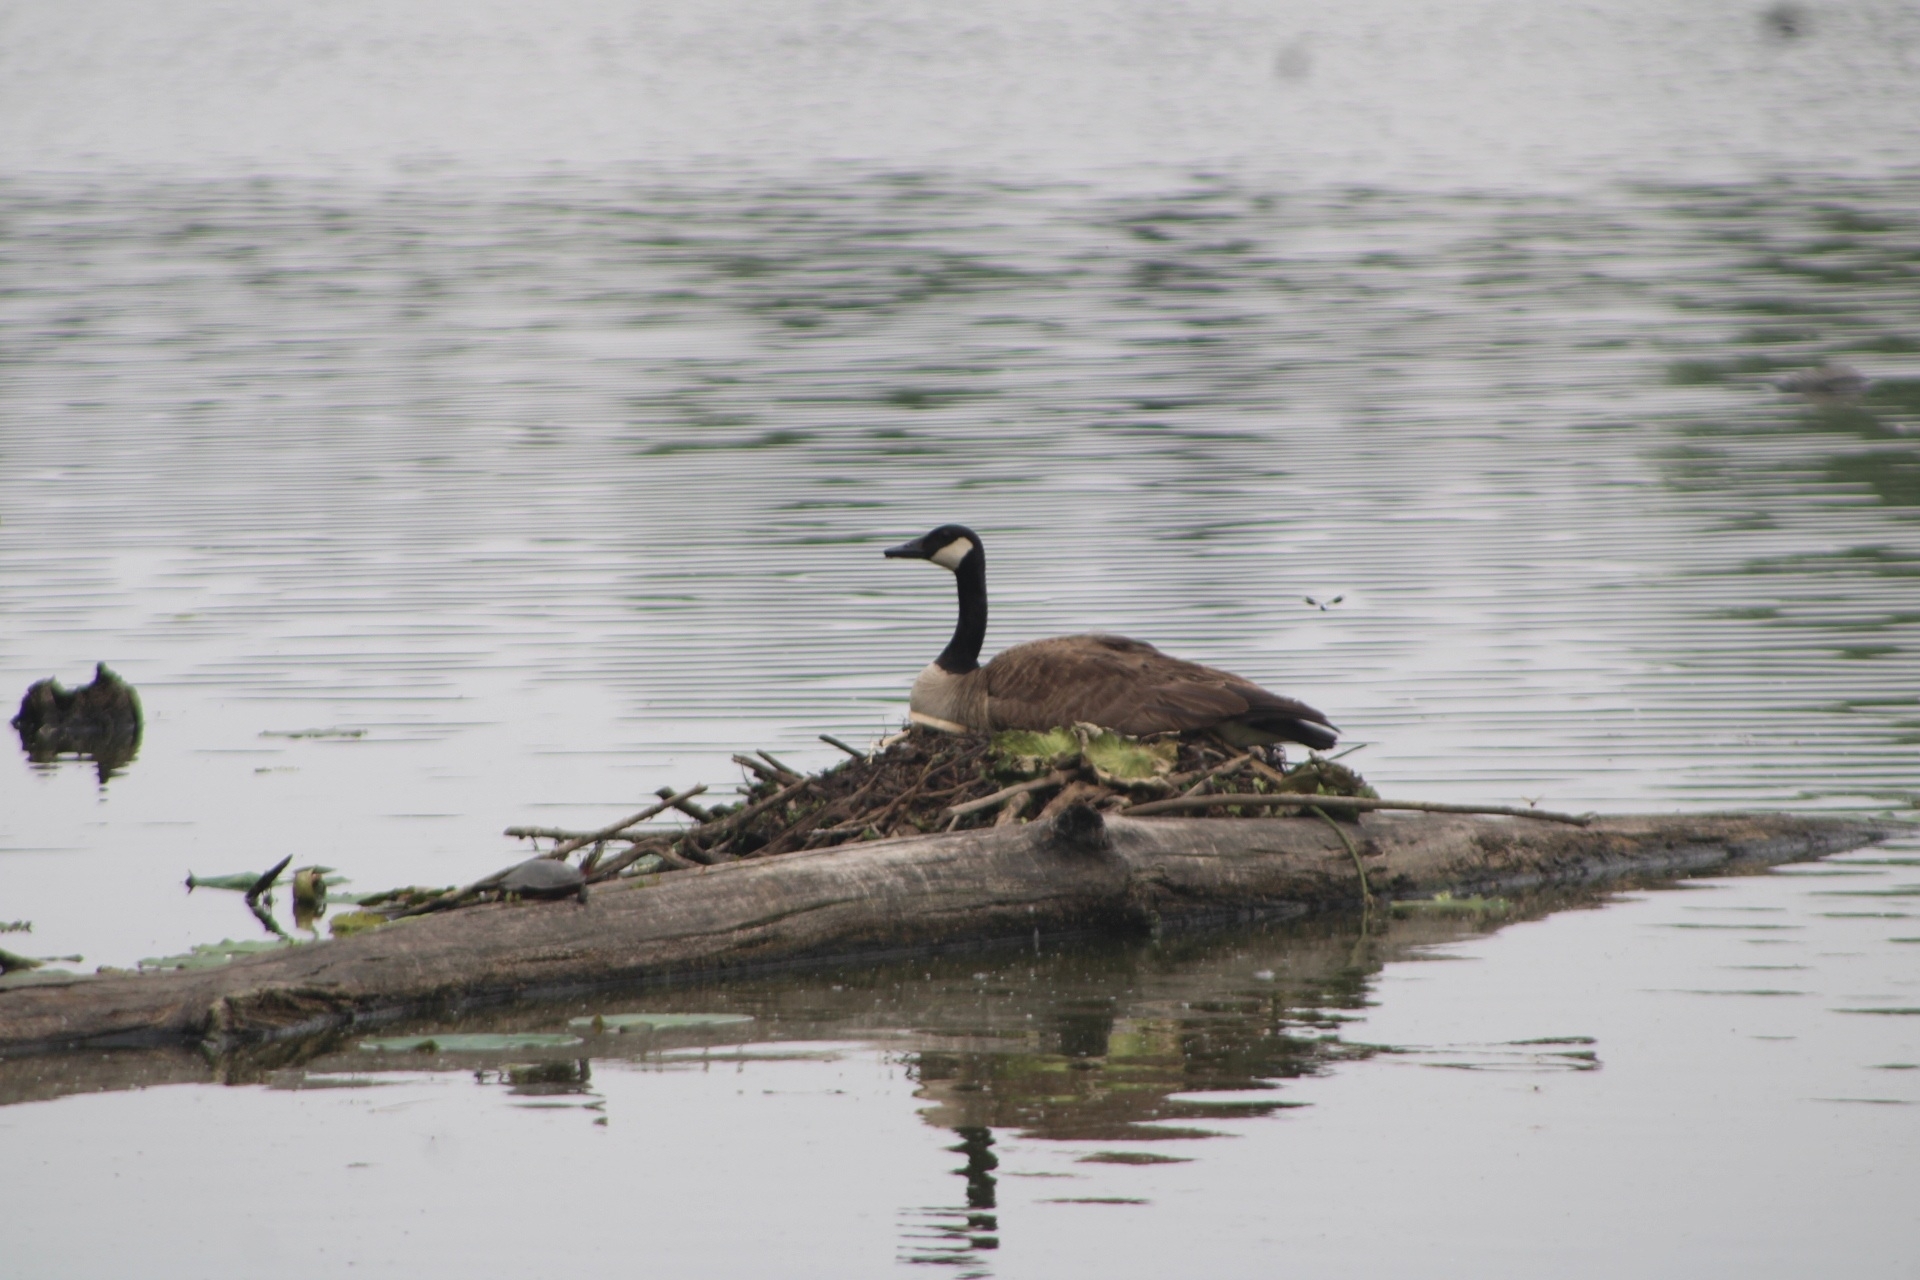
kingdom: Animalia
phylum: Chordata
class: Aves
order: Anseriformes
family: Anatidae
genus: Branta
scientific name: Branta canadensis
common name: Canada goose
